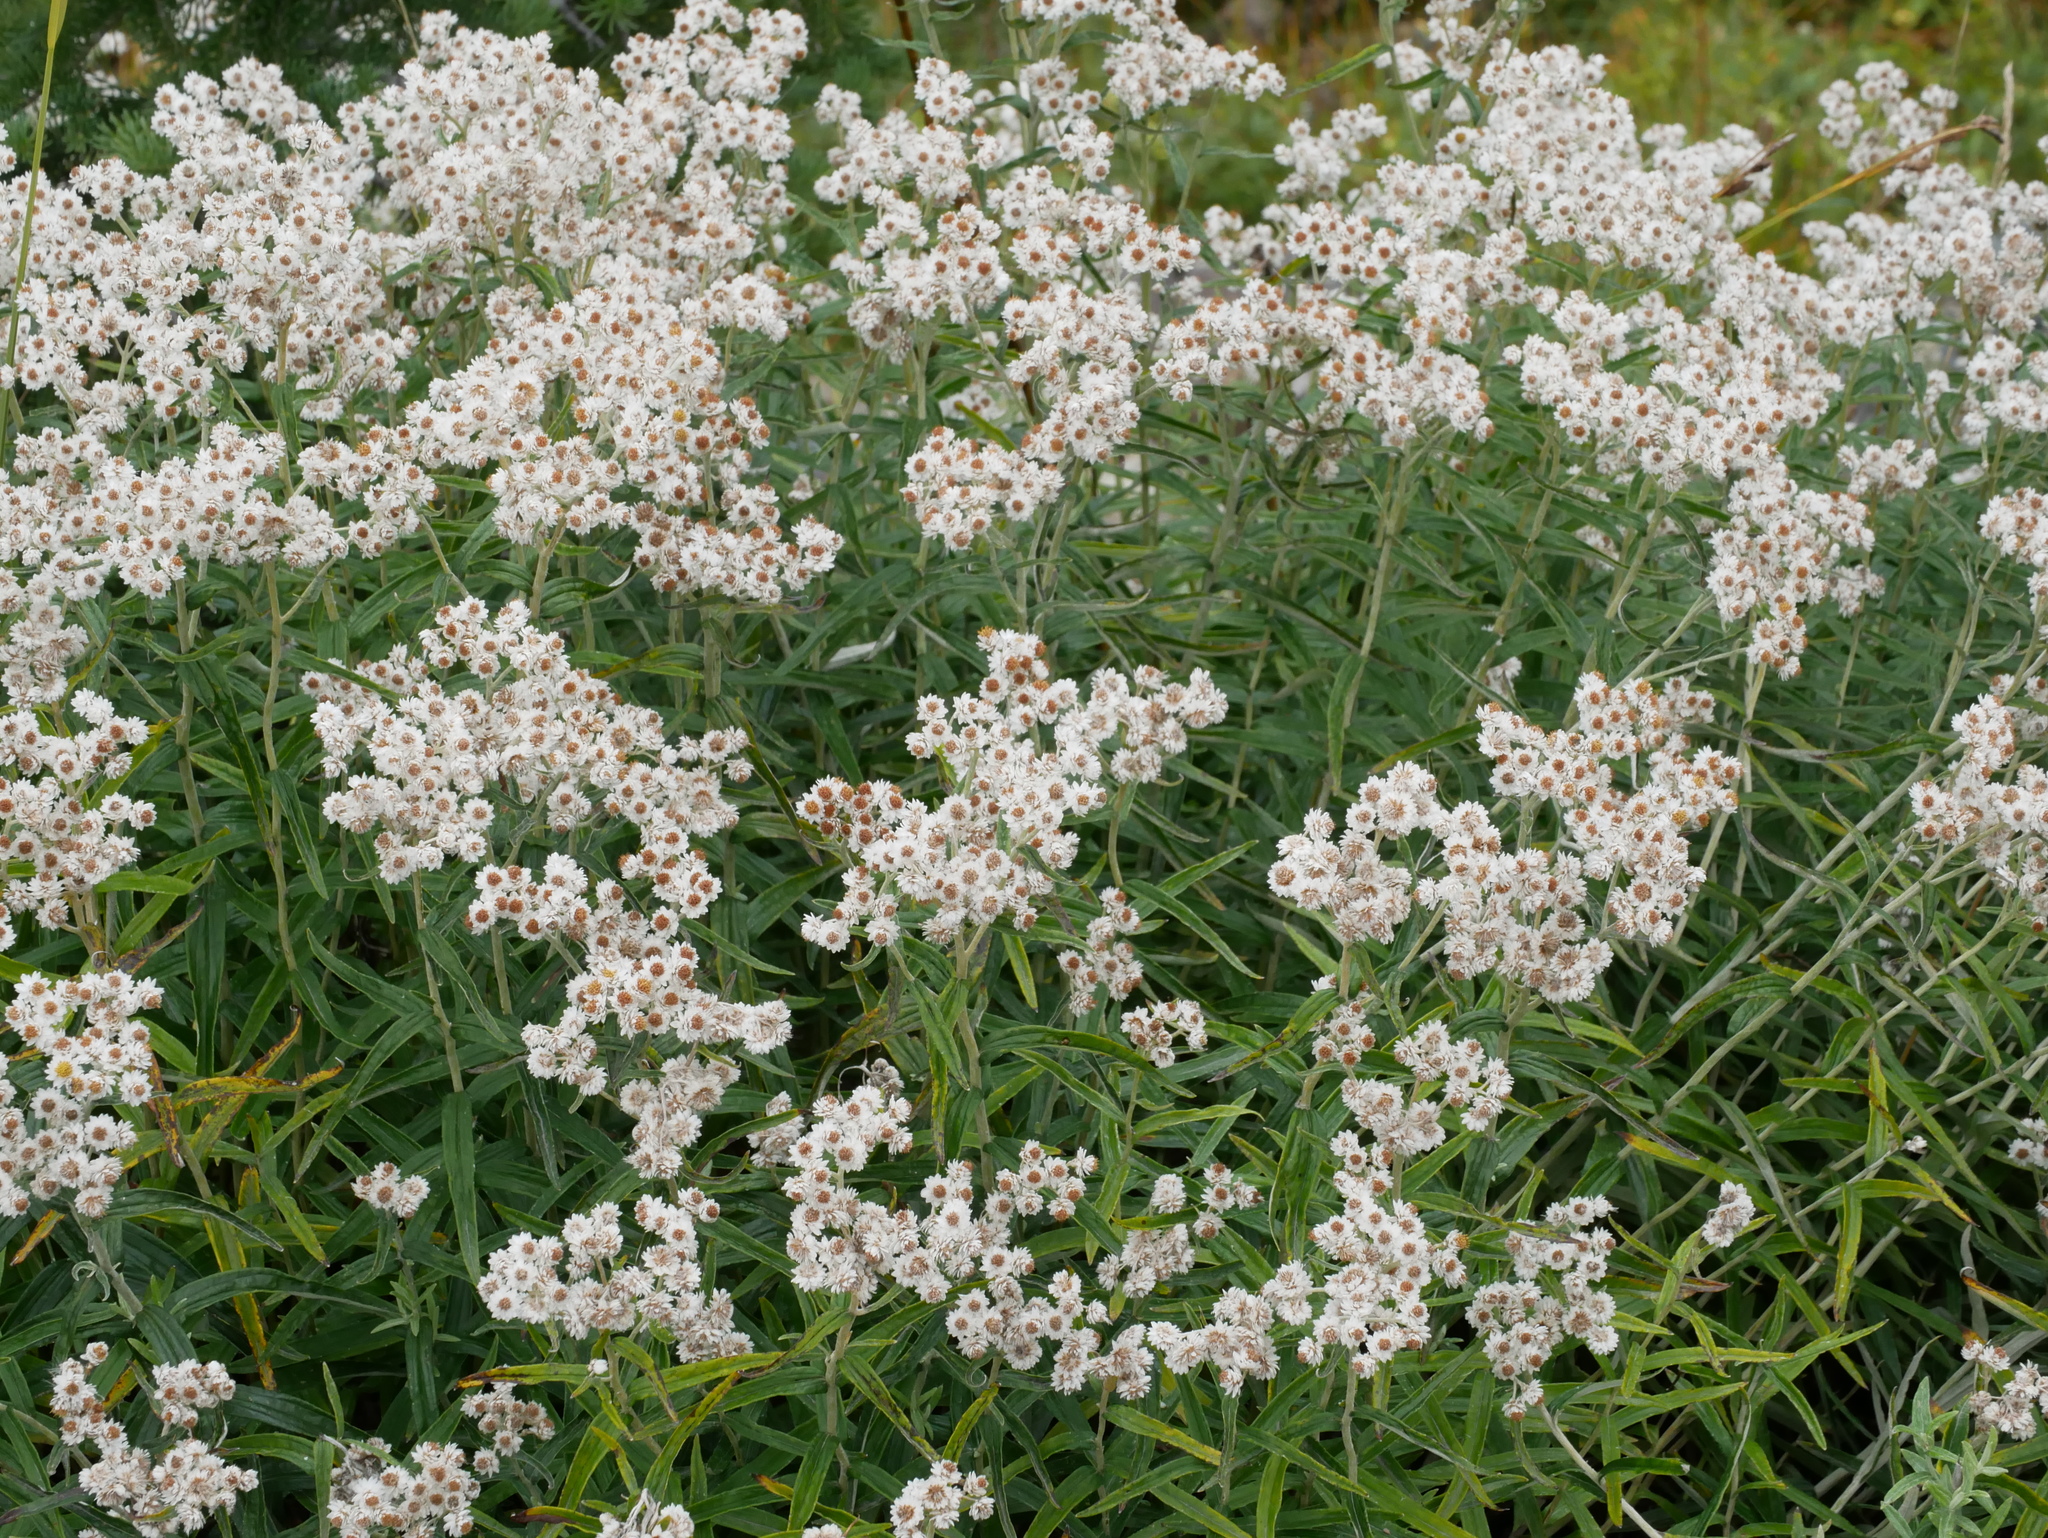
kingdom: Plantae
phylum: Tracheophyta
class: Magnoliopsida
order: Asterales
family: Asteraceae
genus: Anaphalis
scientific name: Anaphalis margaritacea
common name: Pearly everlasting
